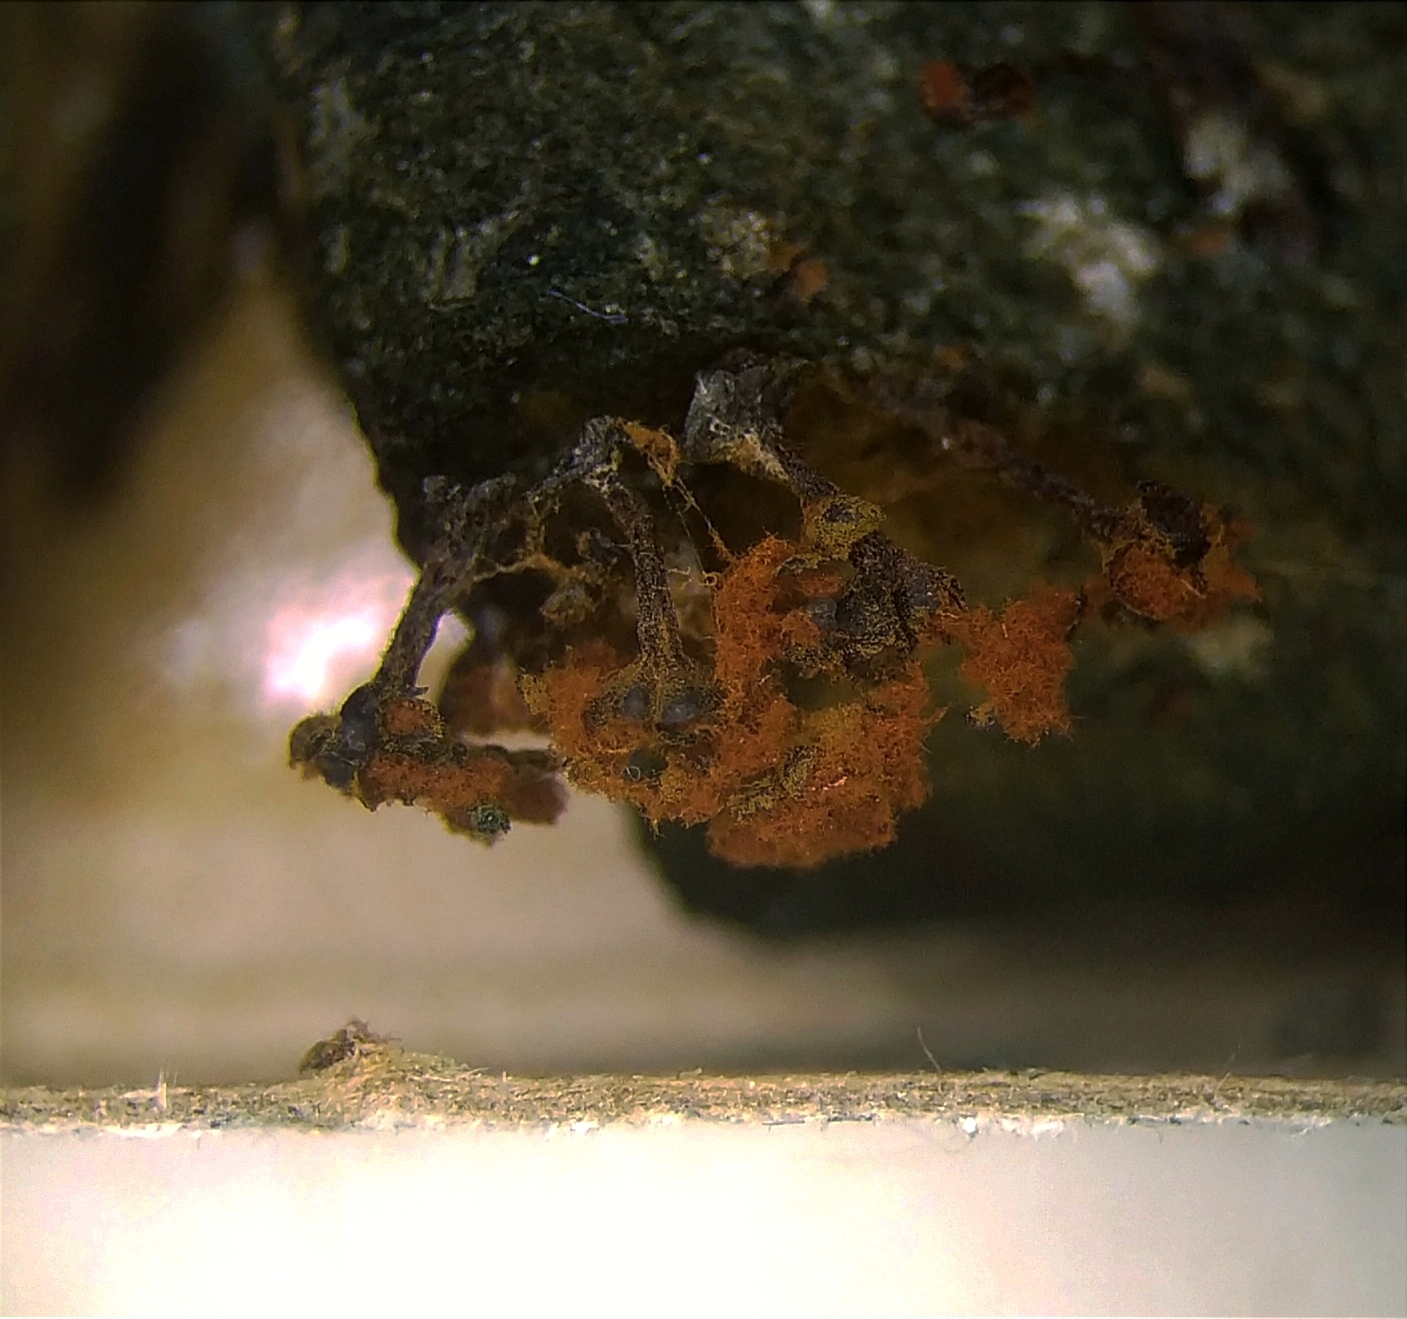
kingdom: Protozoa
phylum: Mycetozoa
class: Myxomycetes
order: Trichiales
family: Trichiaceae
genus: Metatrichia
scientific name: Metatrichia floriformis
